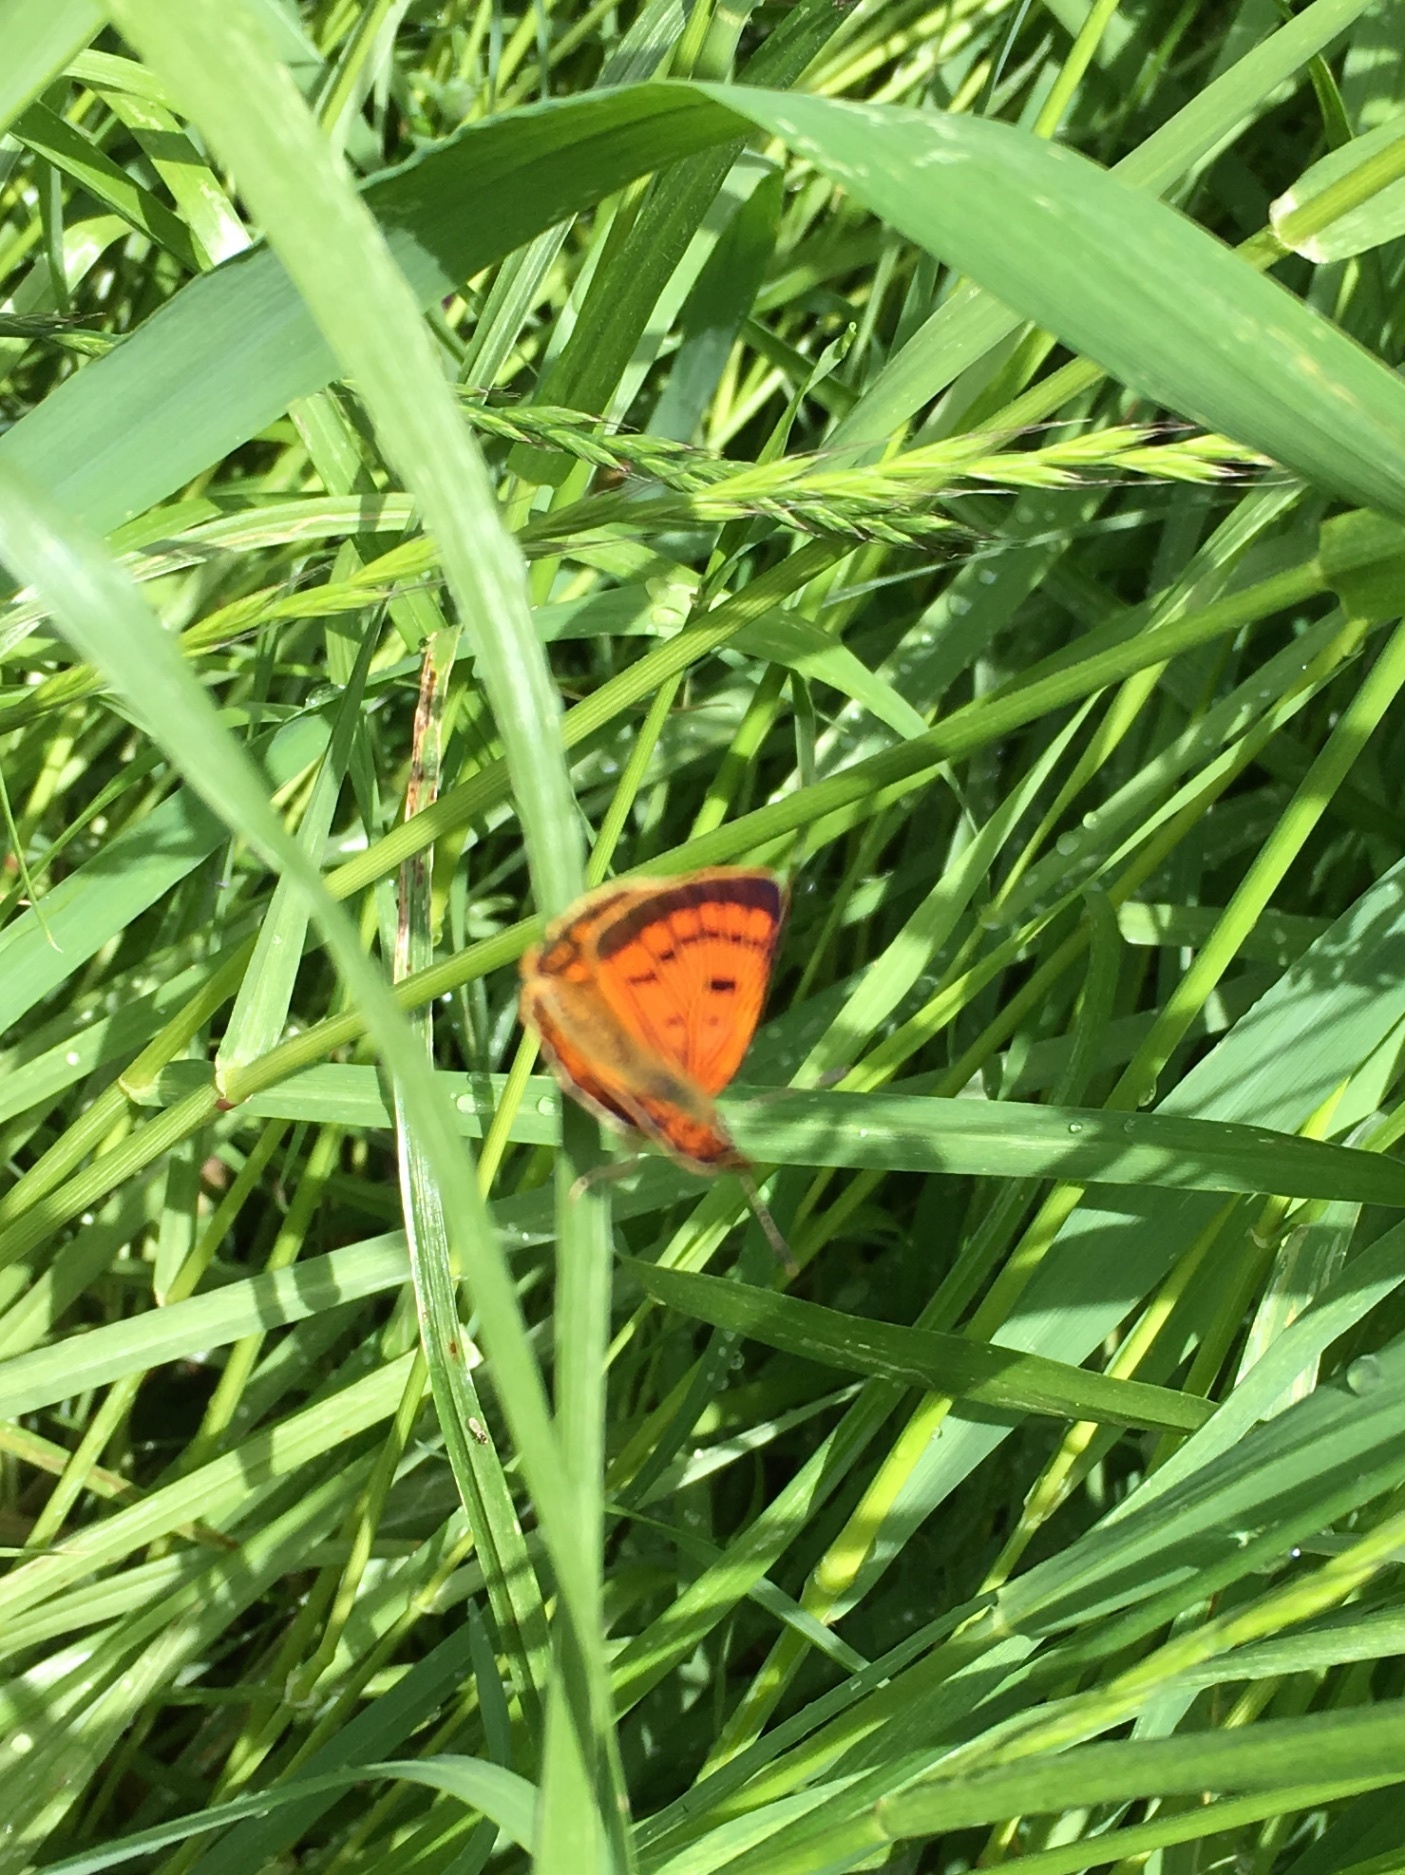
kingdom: Animalia
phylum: Arthropoda
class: Insecta
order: Lepidoptera
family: Lycaenidae
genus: Lycaena
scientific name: Lycaena
